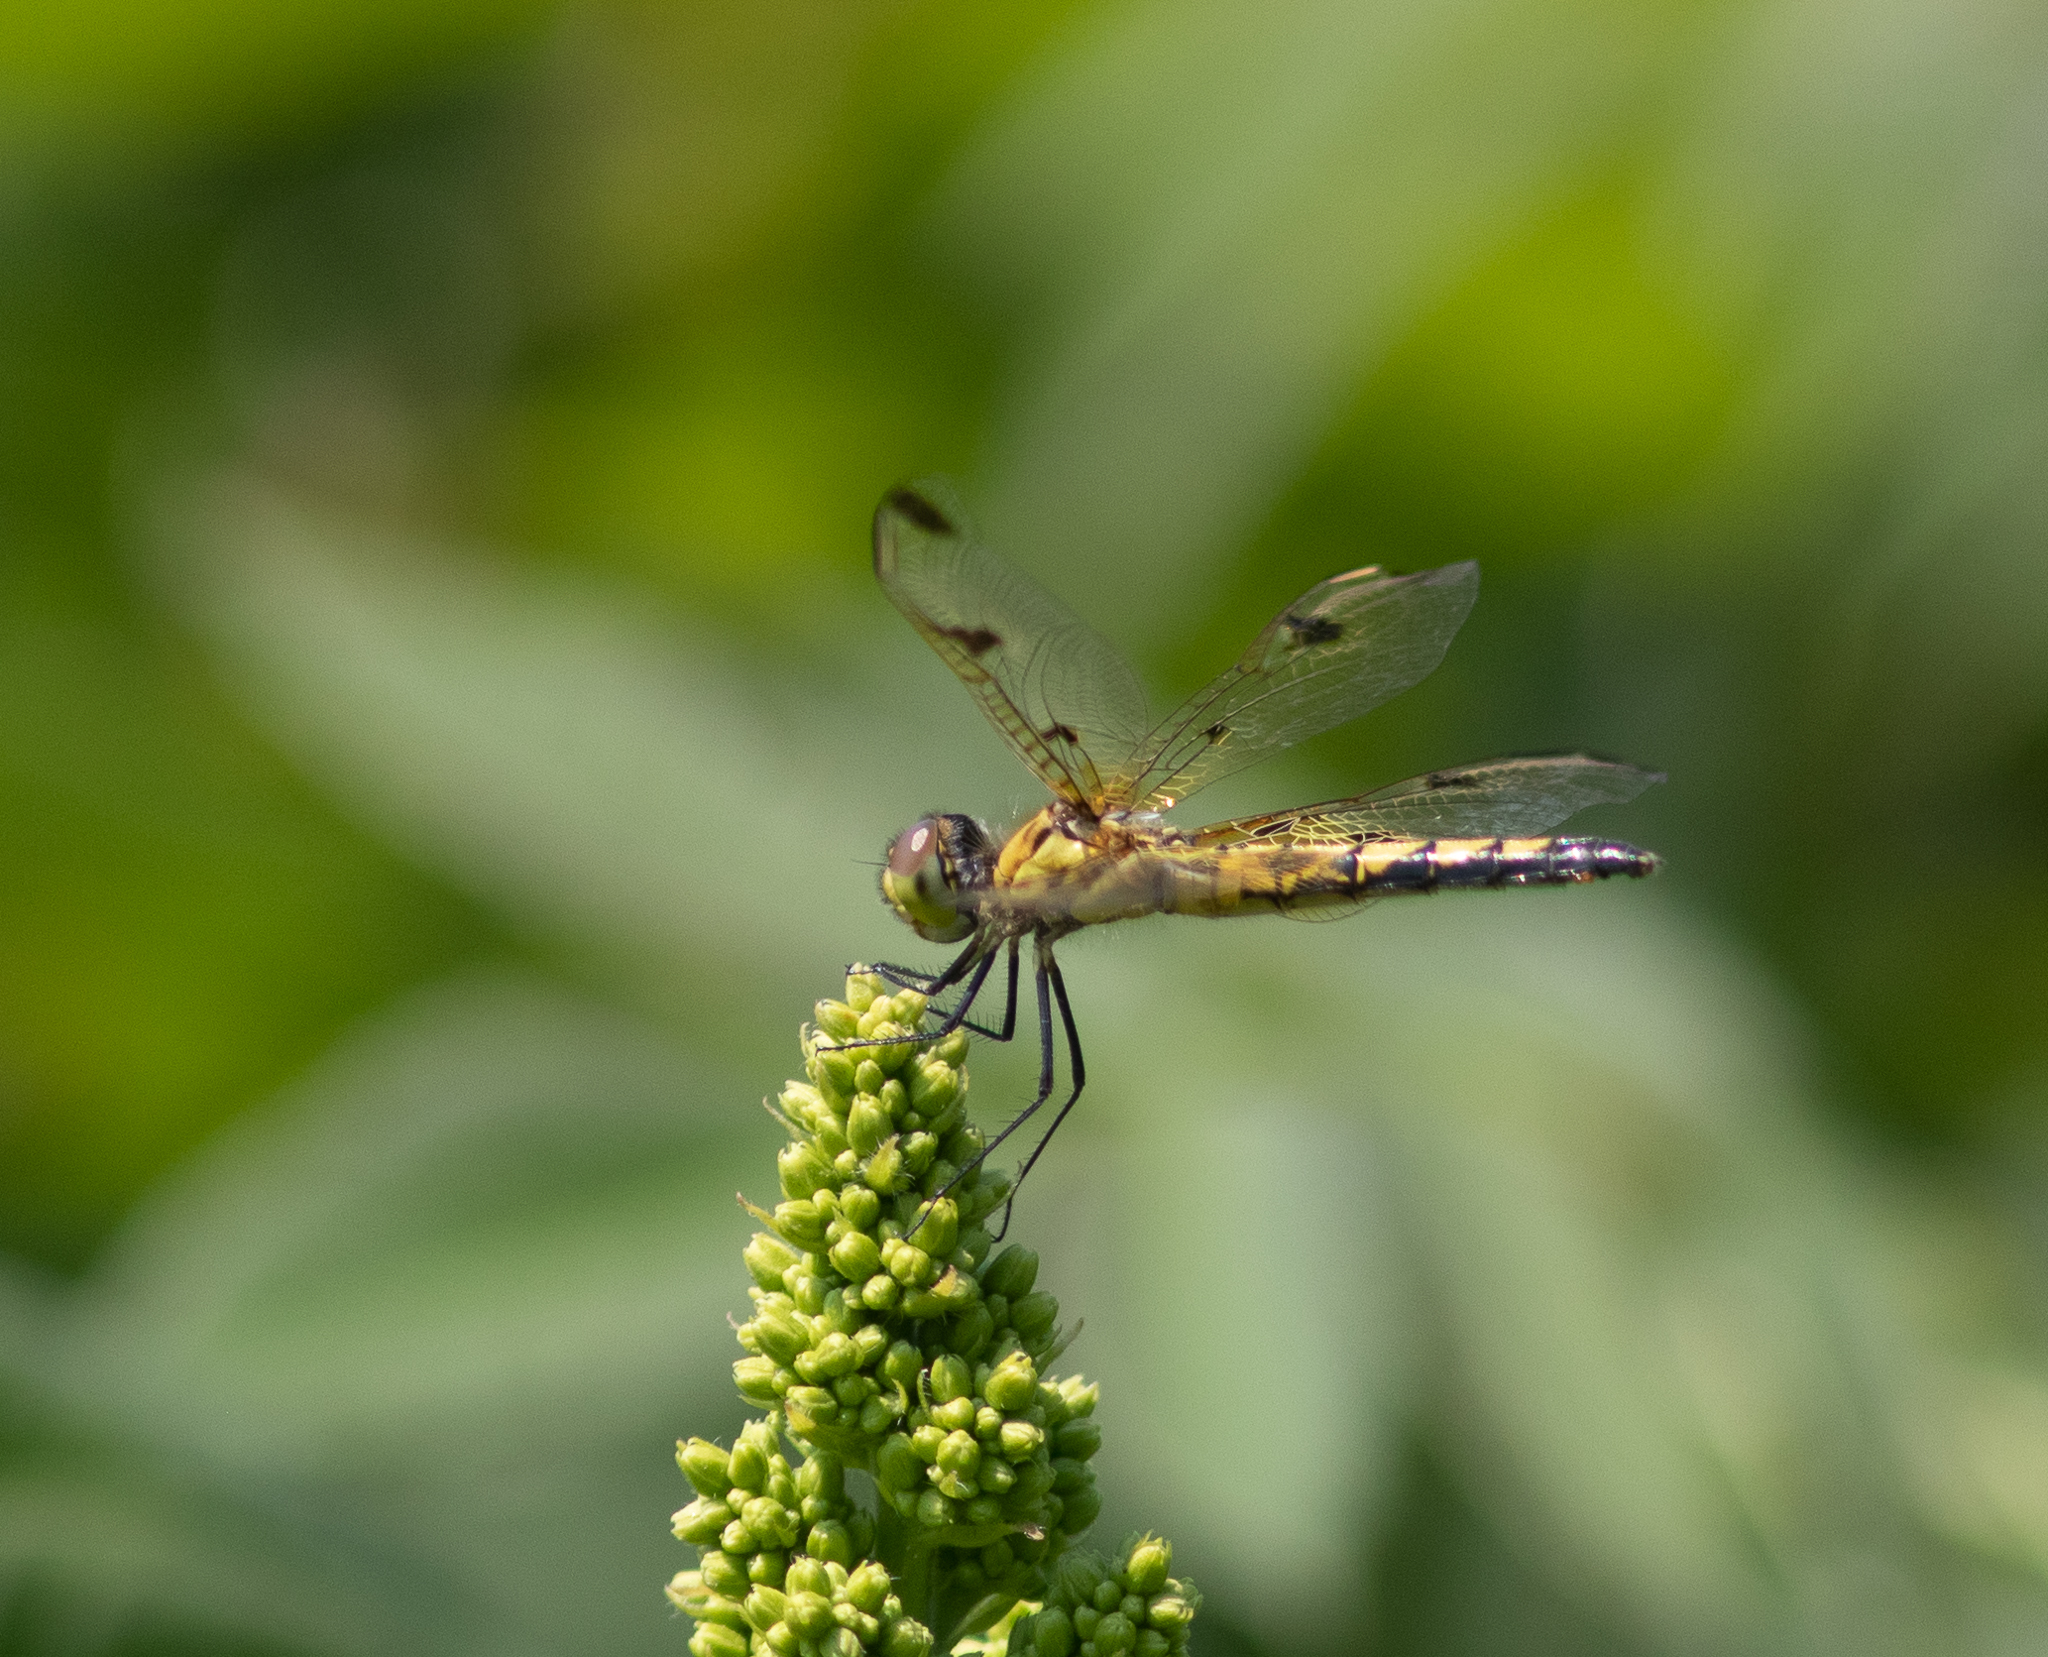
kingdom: Animalia
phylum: Arthropoda
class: Insecta
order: Odonata
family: Libellulidae
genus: Celithemis
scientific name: Celithemis elisa
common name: Calico pennant
